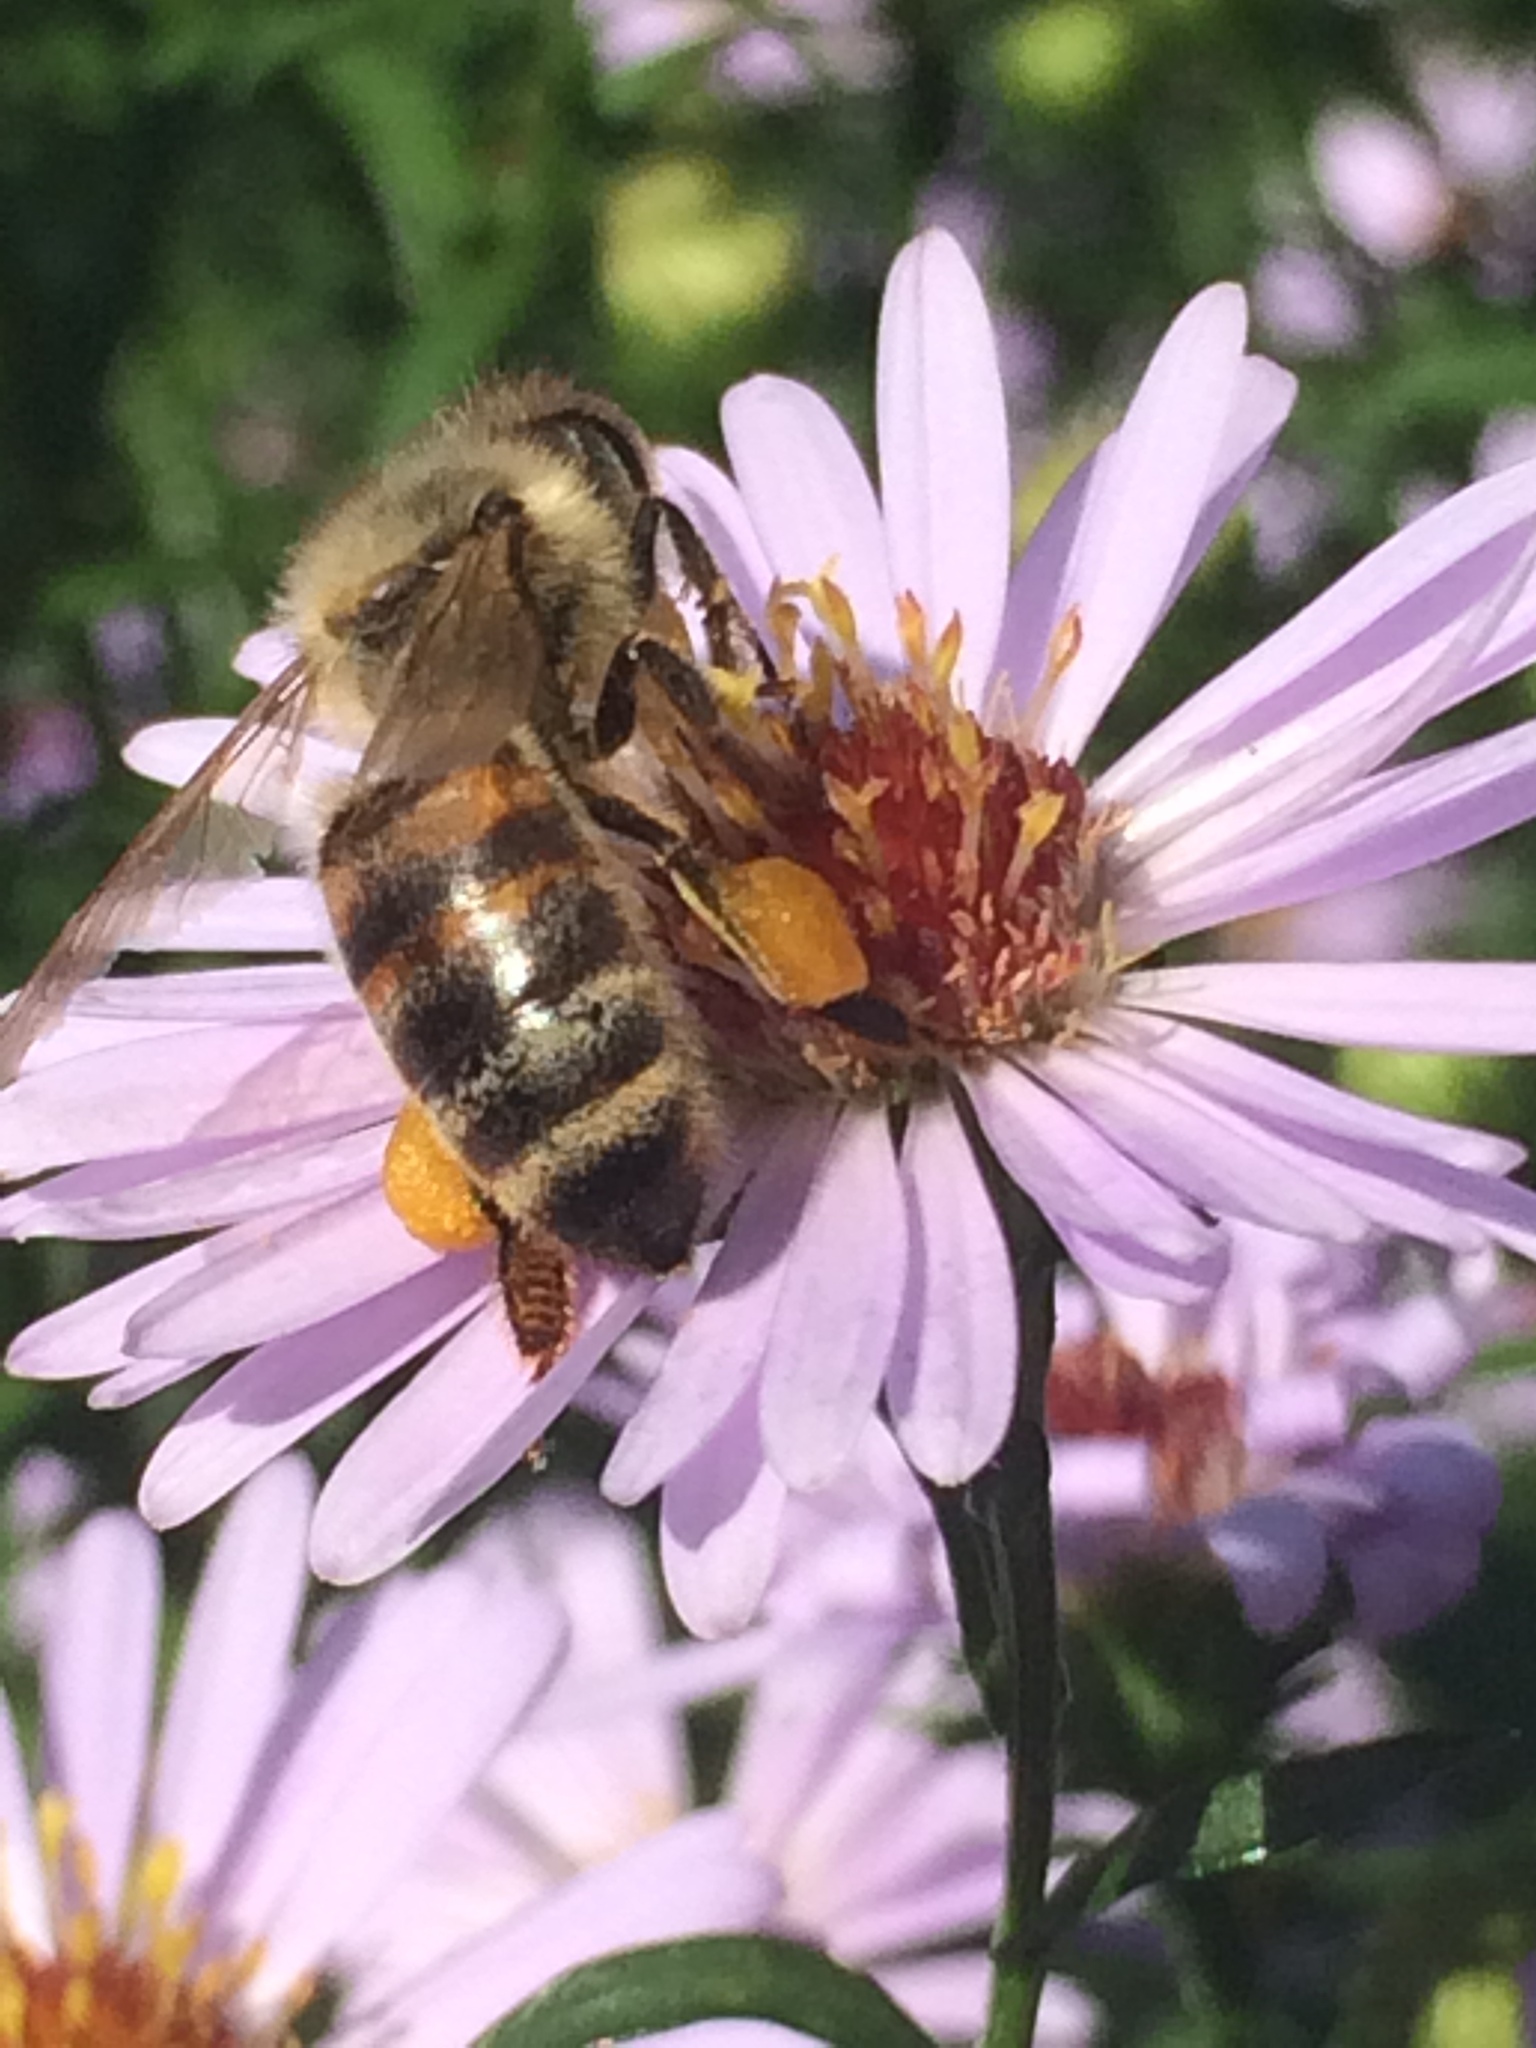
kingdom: Animalia
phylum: Arthropoda
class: Insecta
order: Hymenoptera
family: Apidae
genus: Apis
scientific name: Apis mellifera
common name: Honey bee
